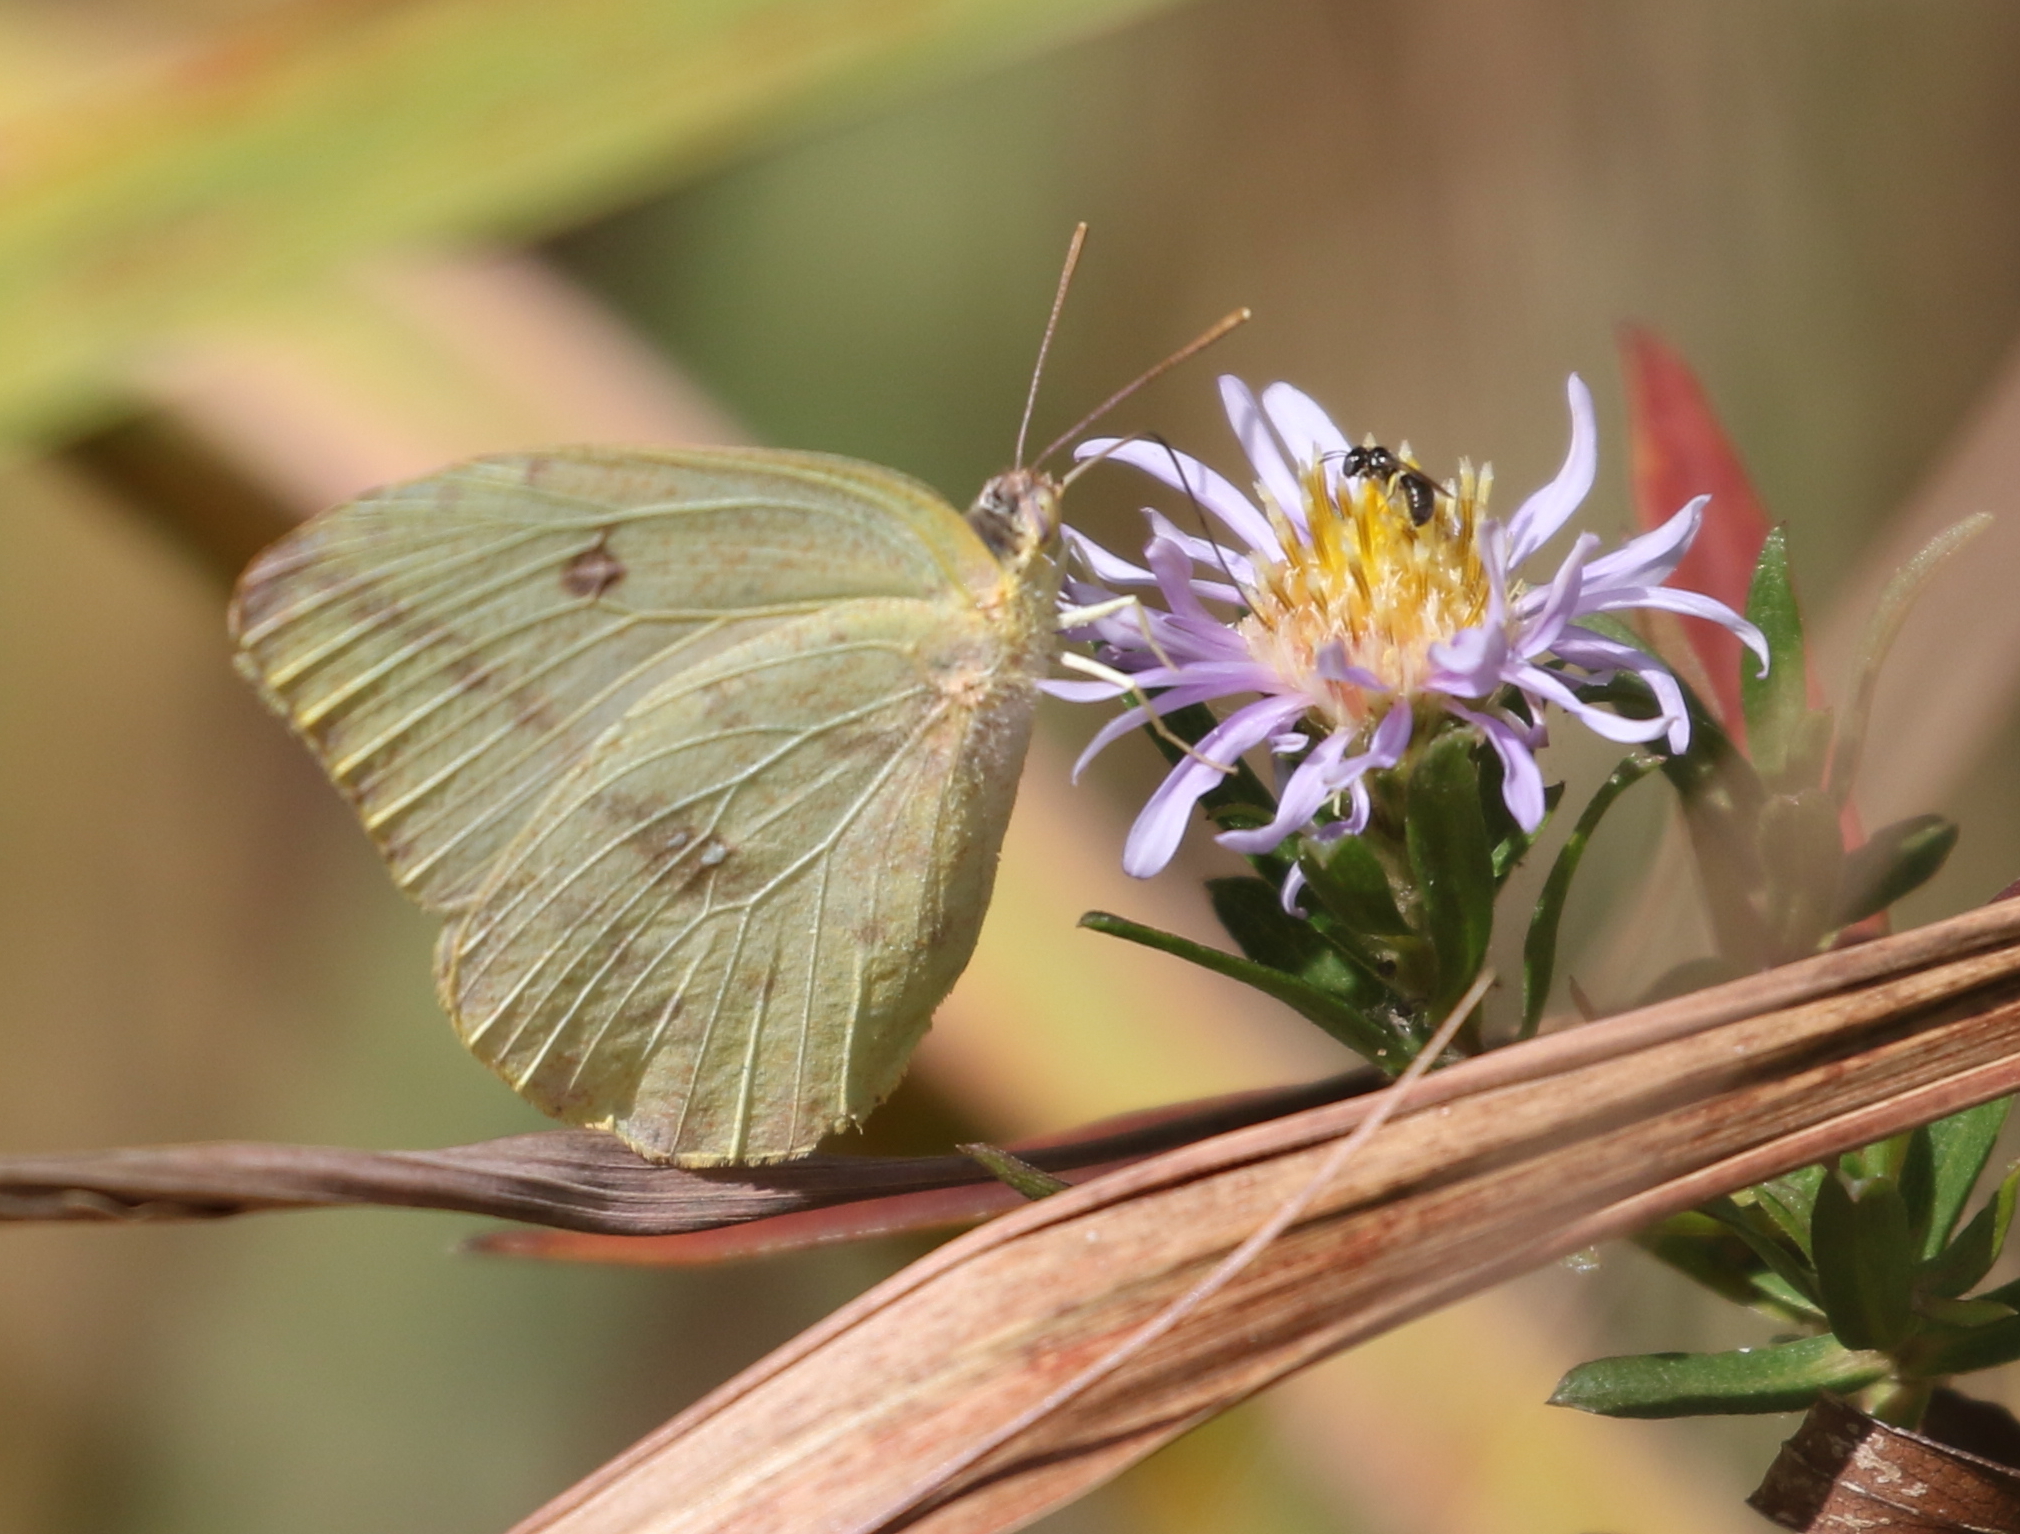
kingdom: Animalia
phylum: Arthropoda
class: Insecta
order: Lepidoptera
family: Pieridae
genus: Phoebis
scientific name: Phoebis agarithe
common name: Large orange sulphur
